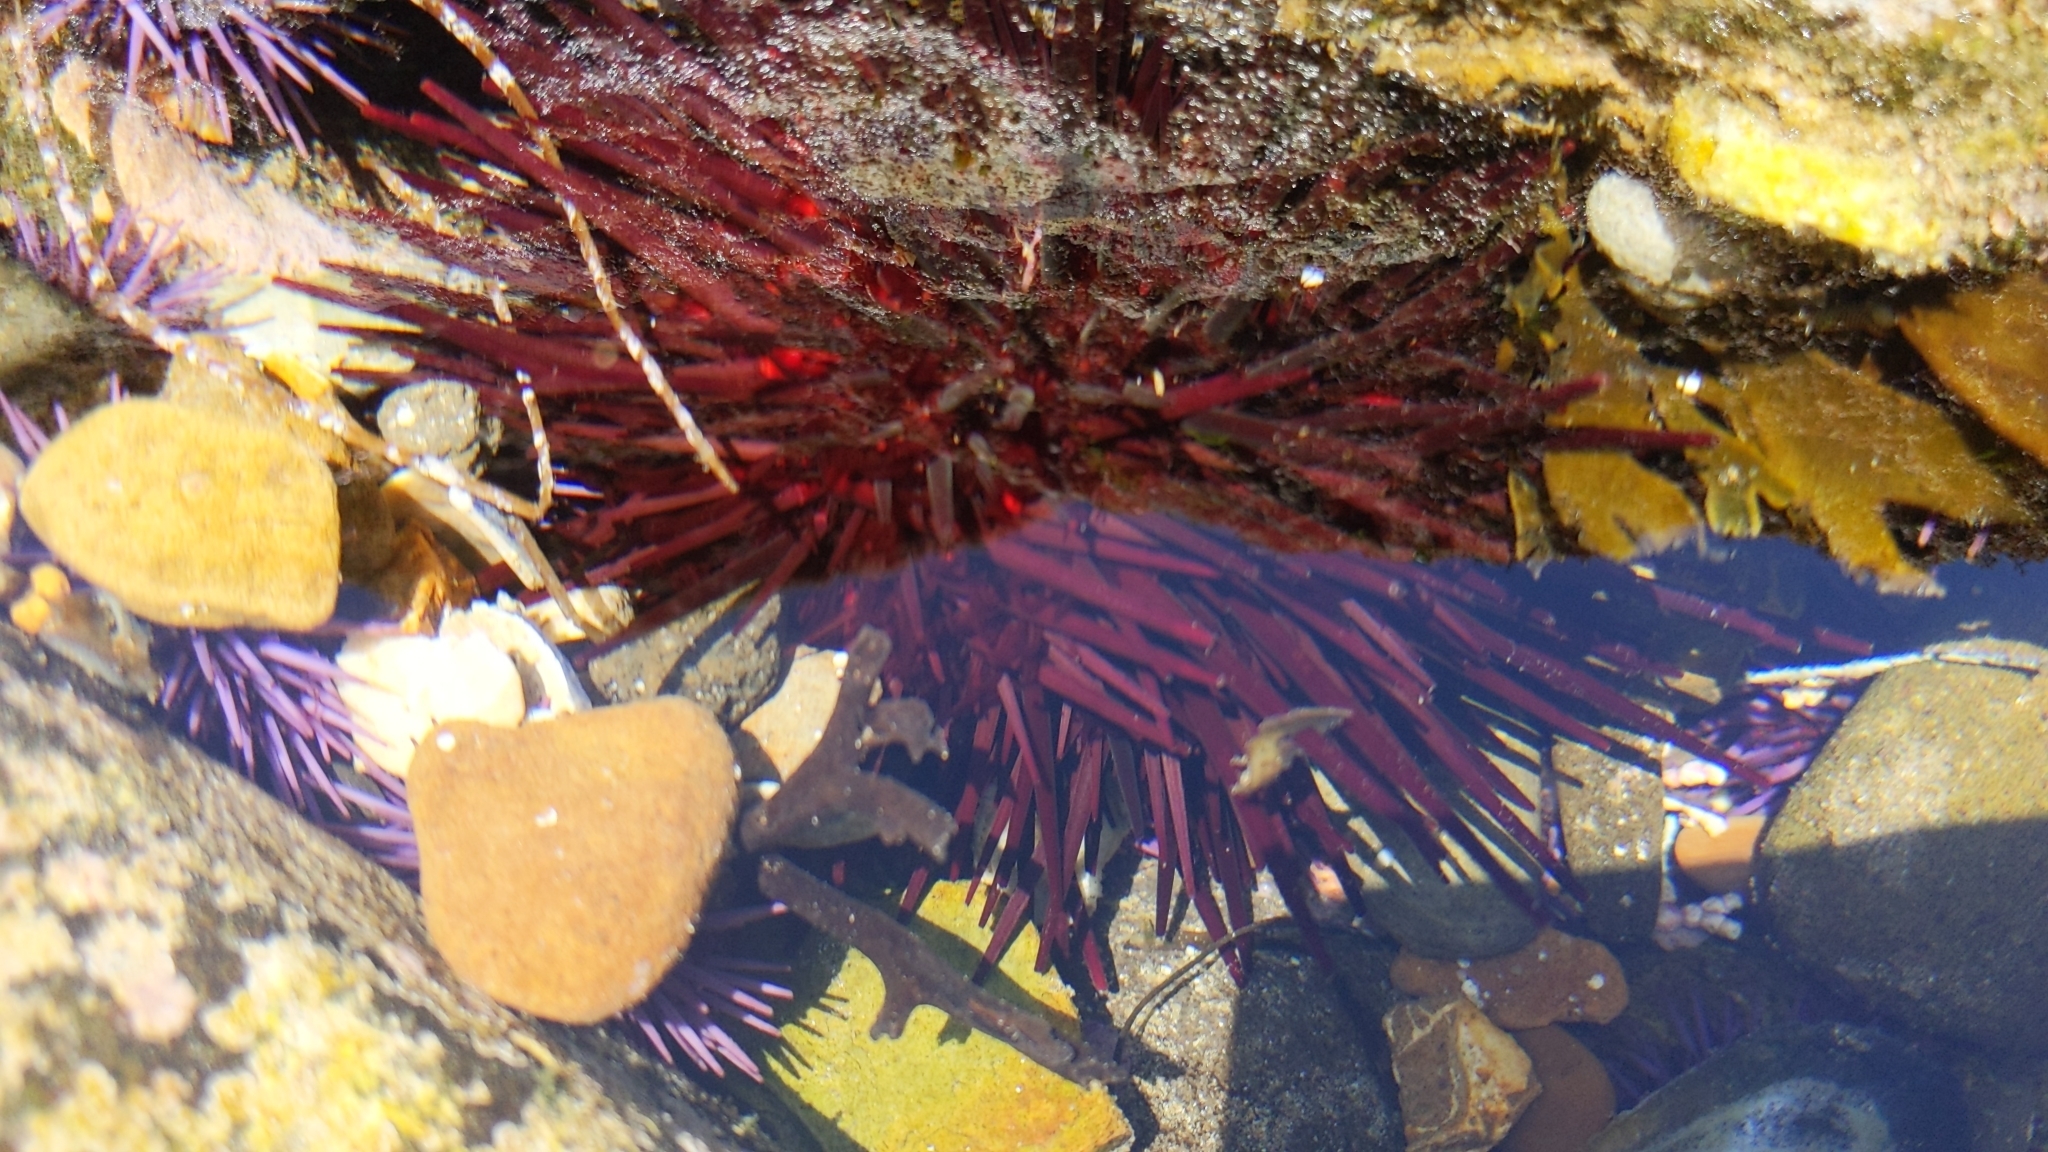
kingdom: Animalia
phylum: Echinodermata
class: Echinoidea
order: Camarodonta
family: Strongylocentrotidae
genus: Mesocentrotus
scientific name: Mesocentrotus franciscanus
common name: Red sea urchin
